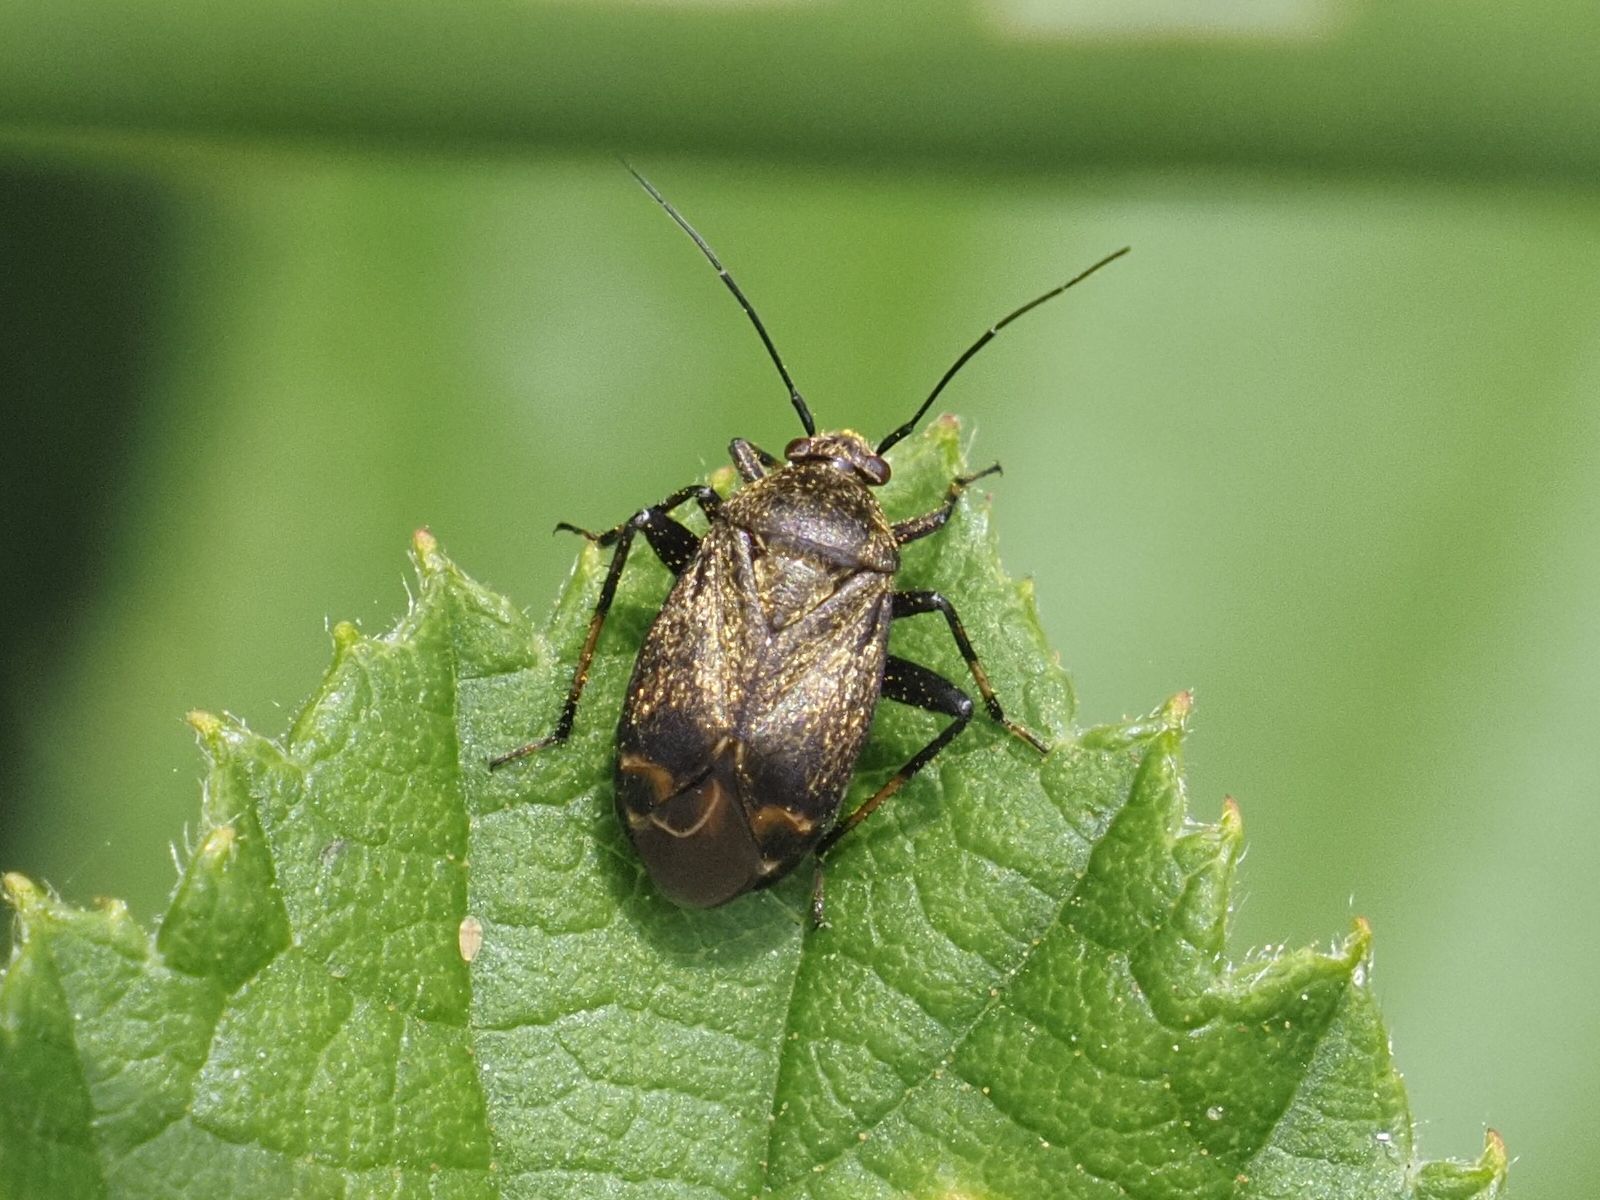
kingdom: Animalia
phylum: Arthropoda
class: Insecta
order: Hemiptera
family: Miridae
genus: Polymerus
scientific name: Polymerus nigritus
